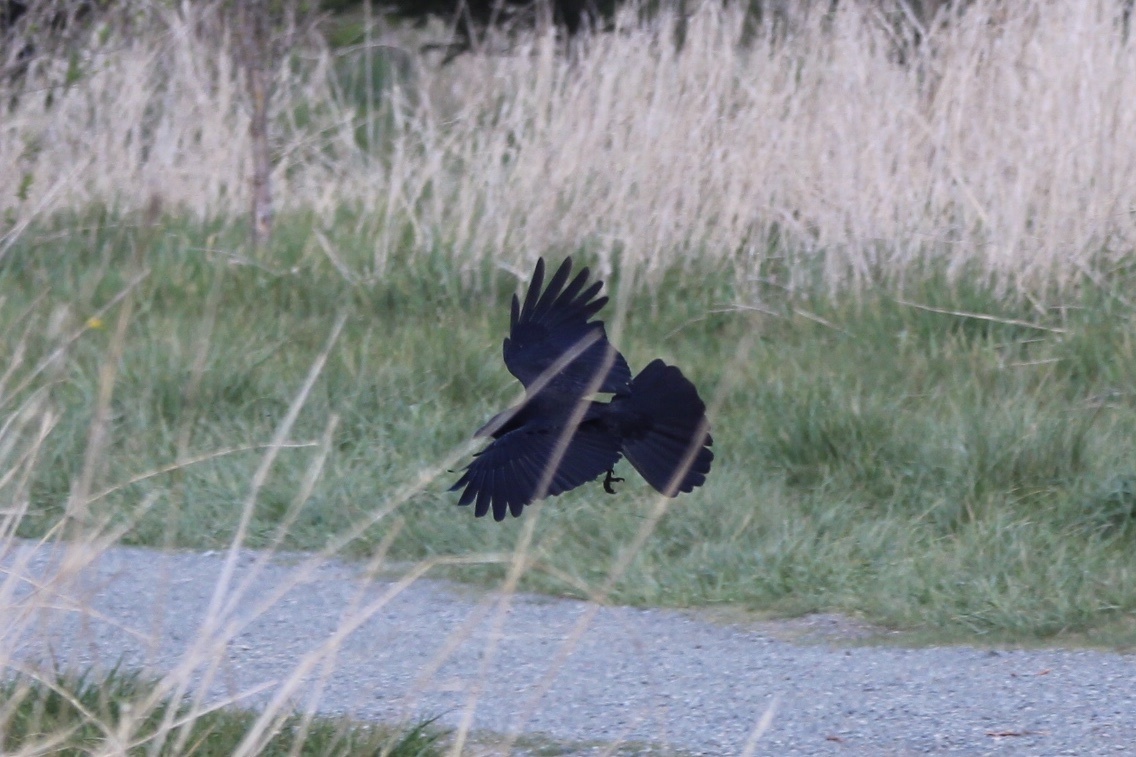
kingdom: Animalia
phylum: Chordata
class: Aves
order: Passeriformes
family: Corvidae
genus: Corvus
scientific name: Corvus brachyrhynchos
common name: American crow
